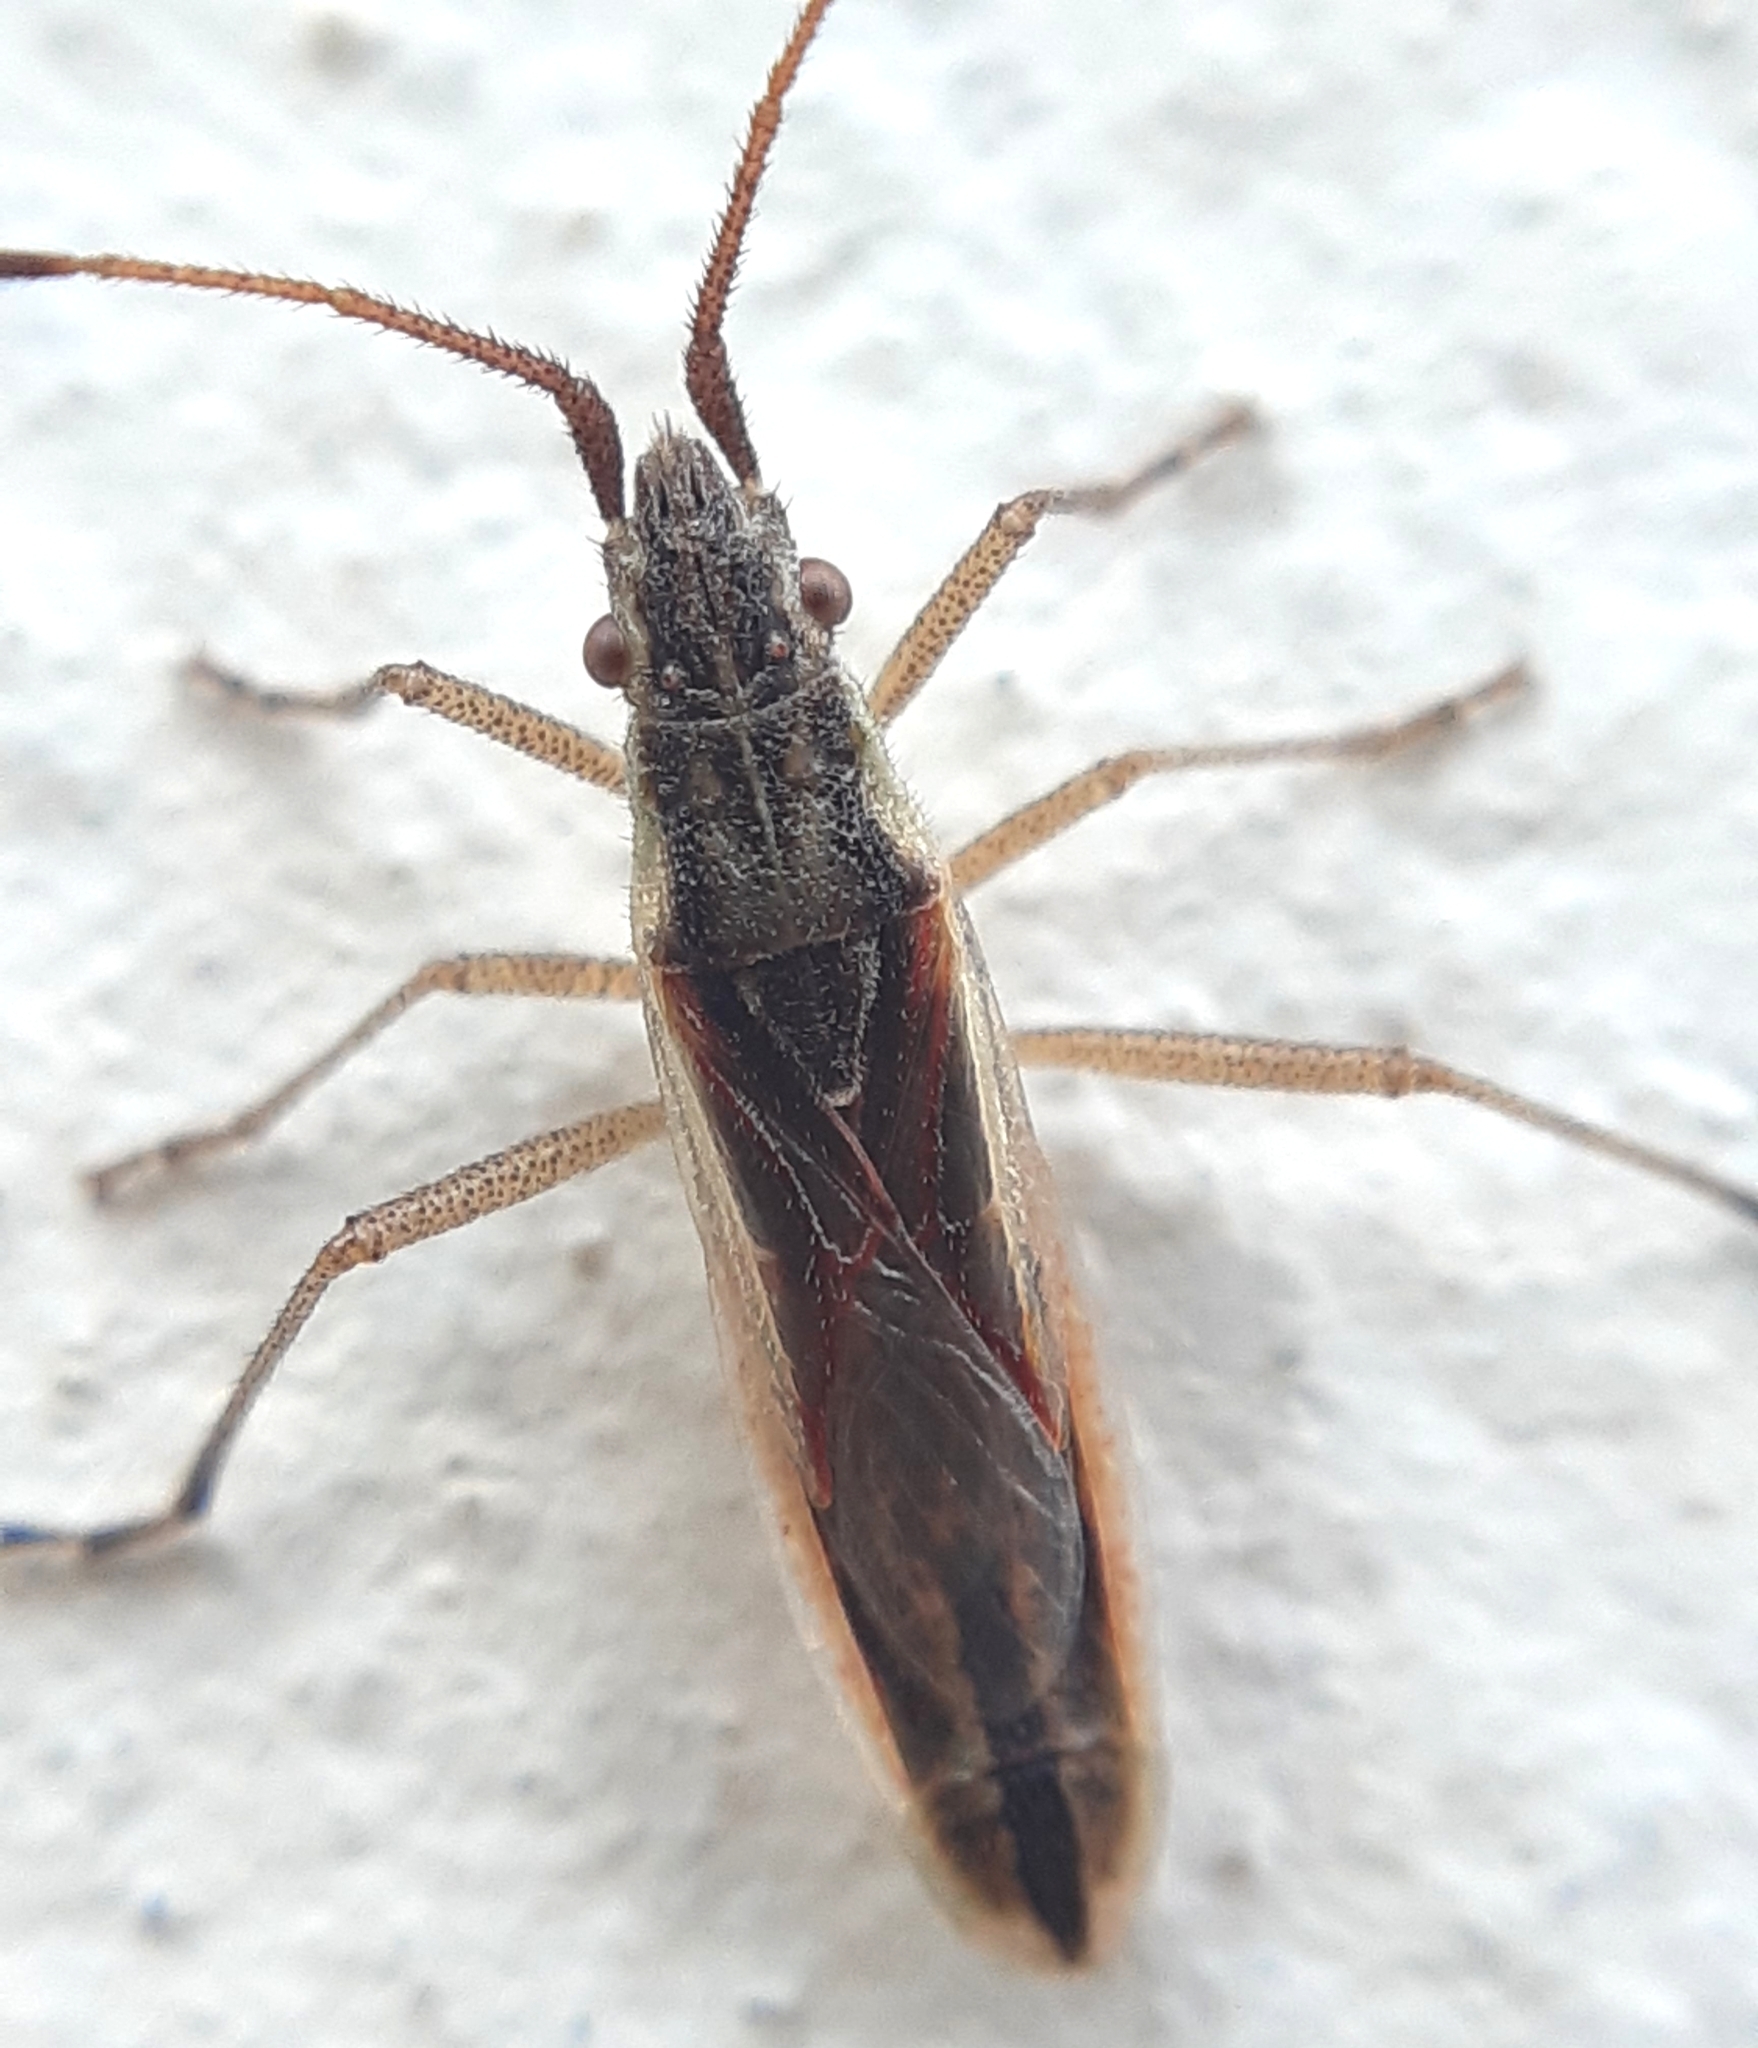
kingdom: Animalia
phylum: Arthropoda
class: Insecta
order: Hemiptera
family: Rhopalidae
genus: Myrmus
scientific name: Myrmus miriformis
